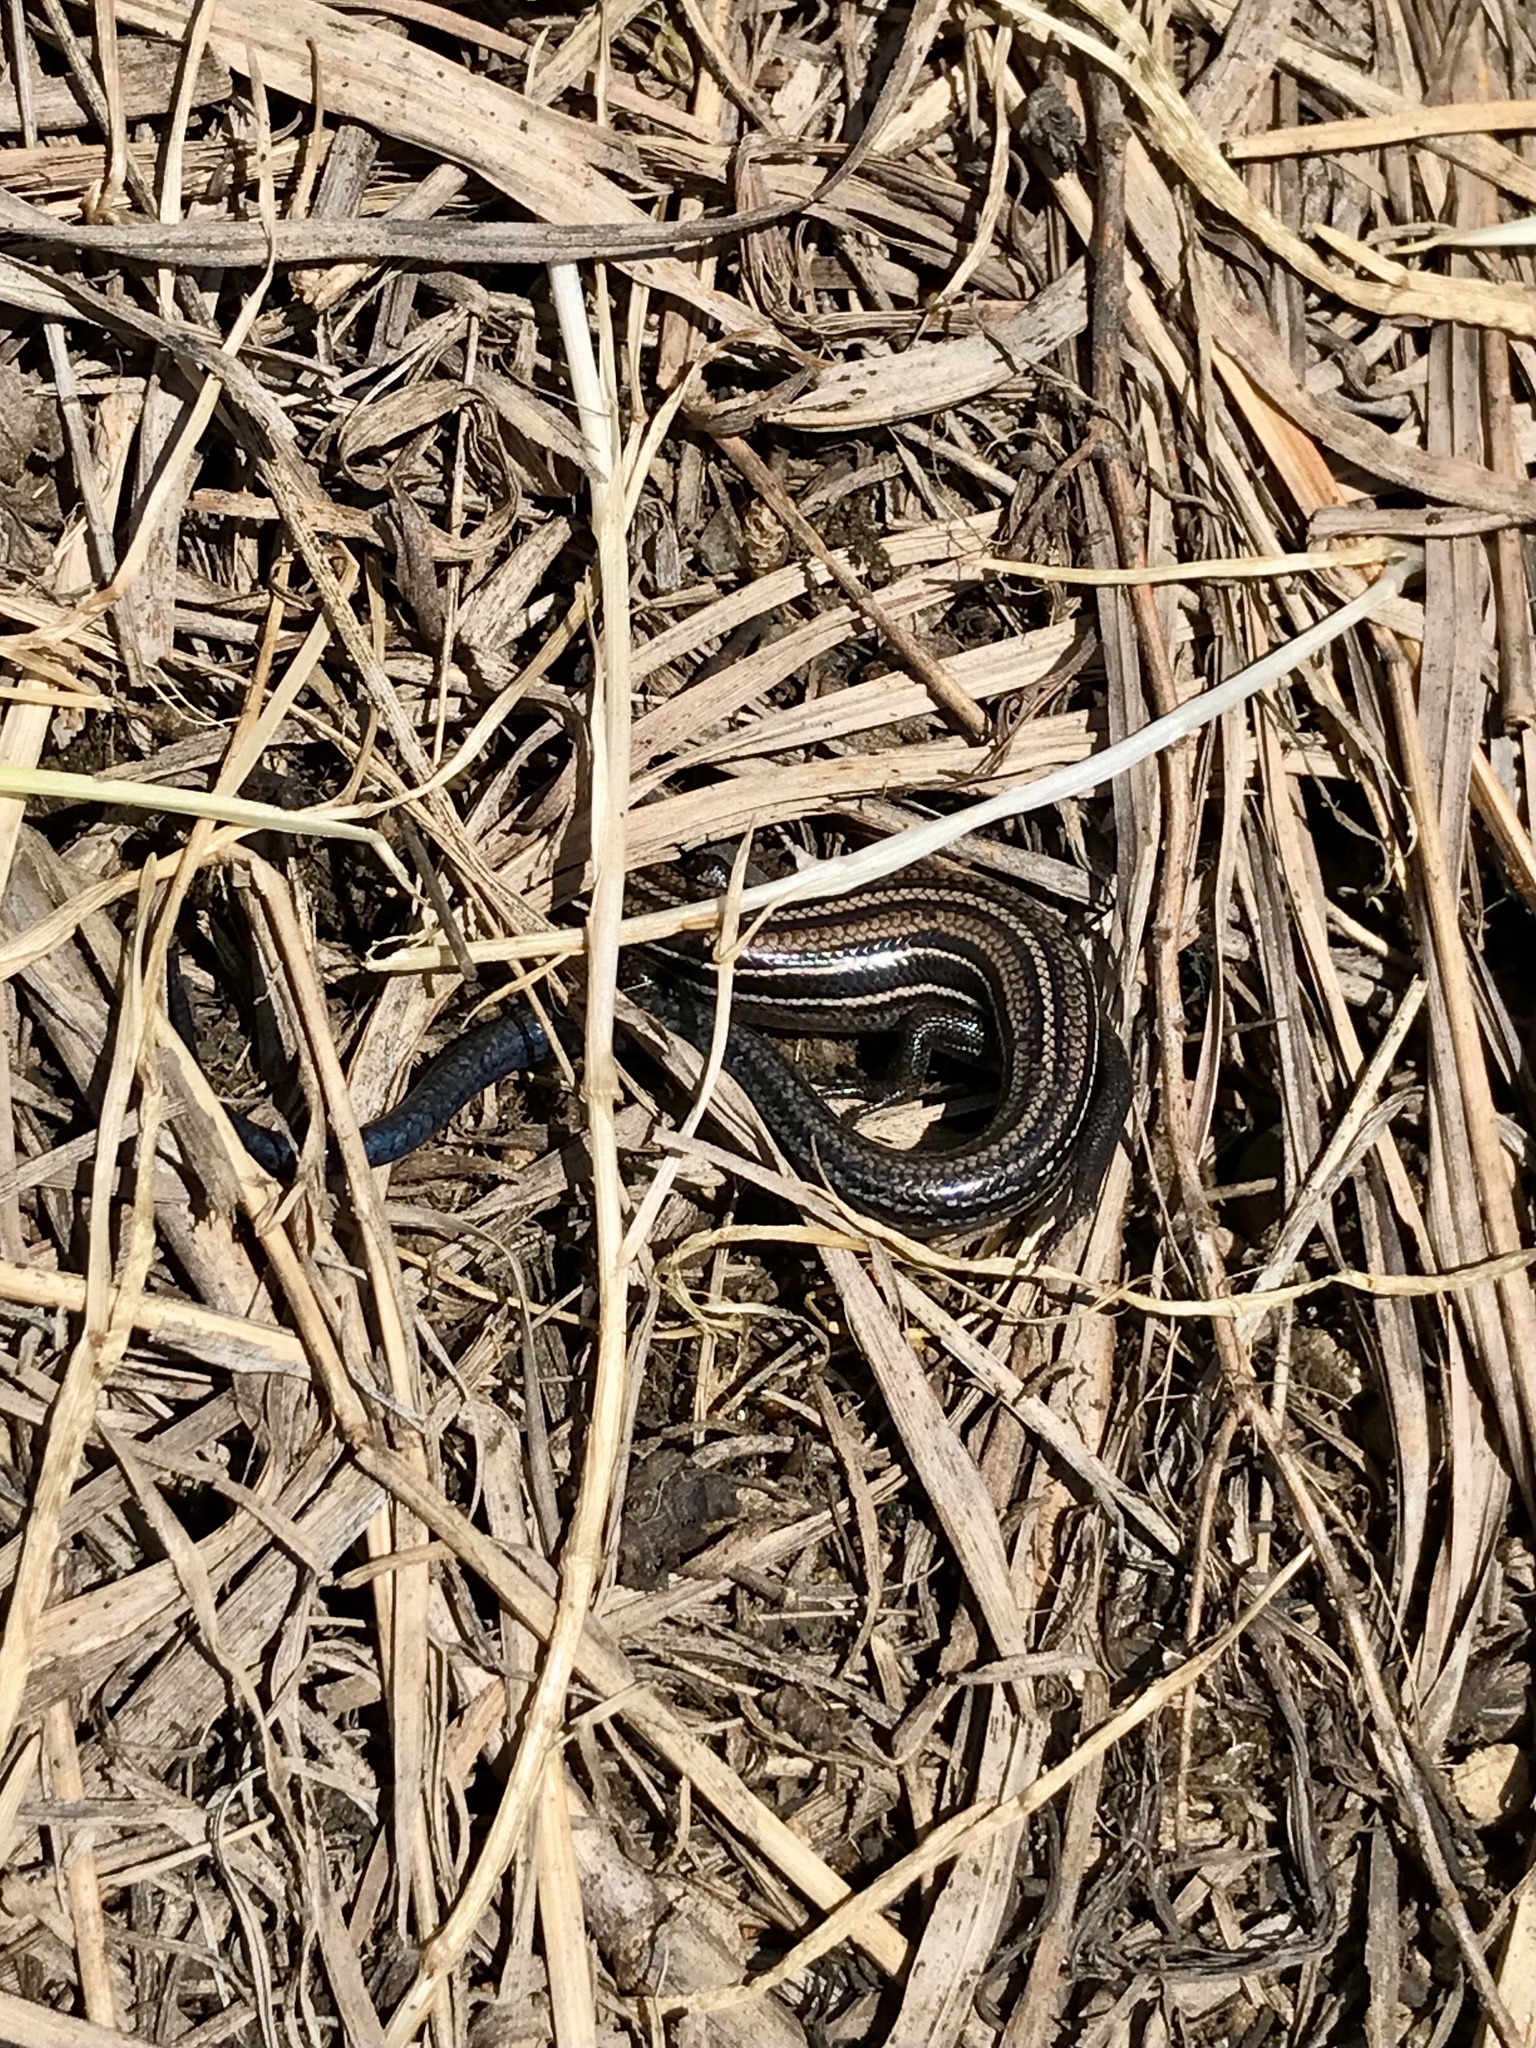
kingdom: Animalia
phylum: Chordata
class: Squamata
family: Scincidae
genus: Plestiodon
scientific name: Plestiodon septentrionalis
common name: Northern prairie skink
